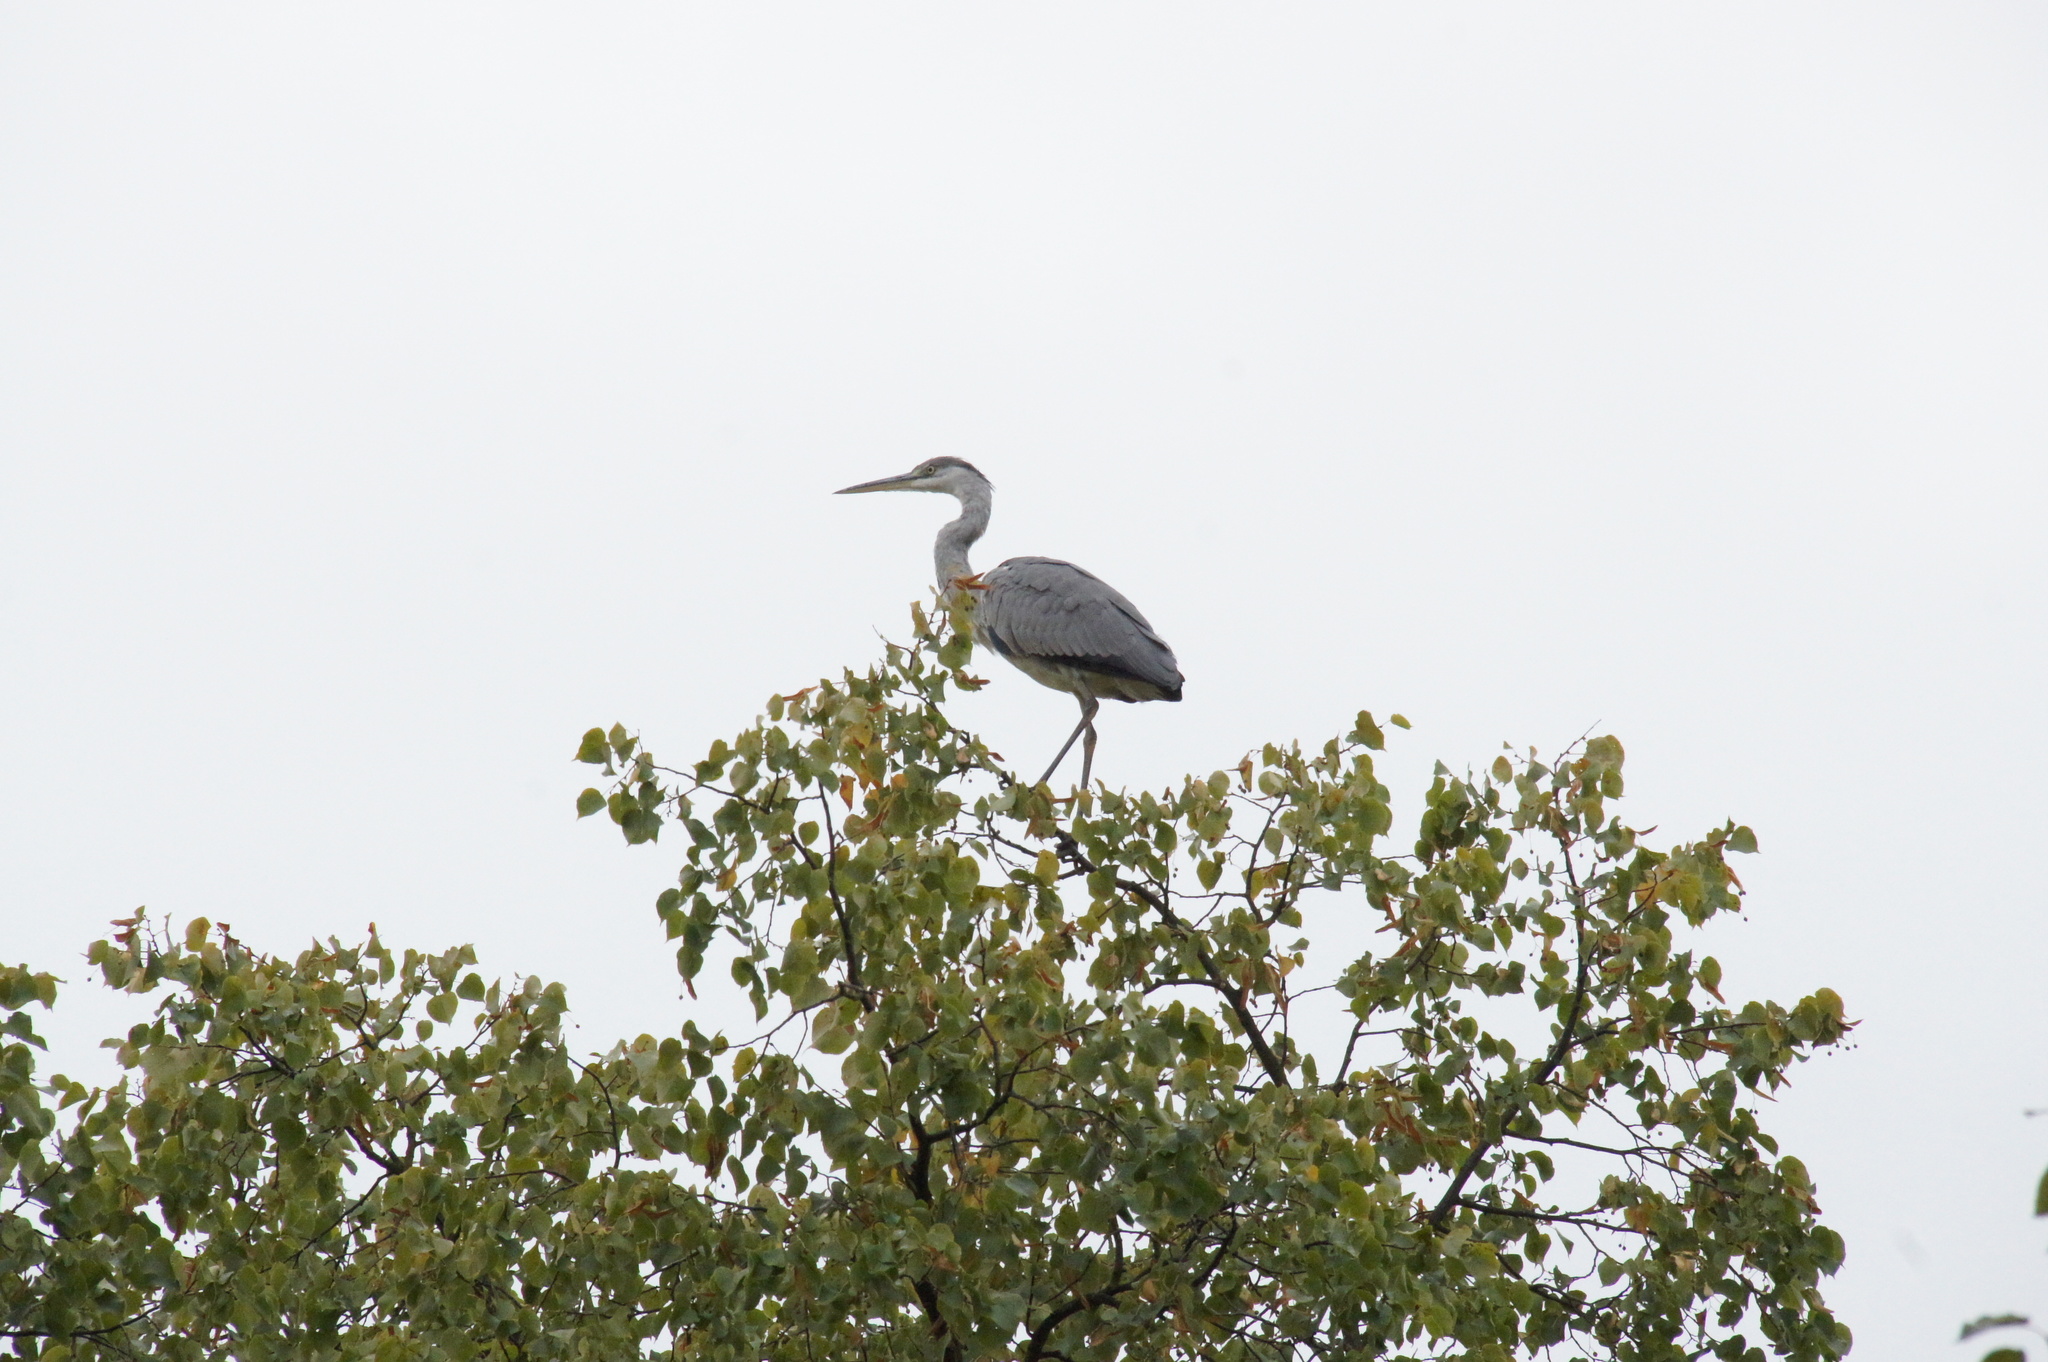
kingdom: Animalia
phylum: Chordata
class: Aves
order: Pelecaniformes
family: Ardeidae
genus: Ardea
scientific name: Ardea cinerea
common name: Grey heron
